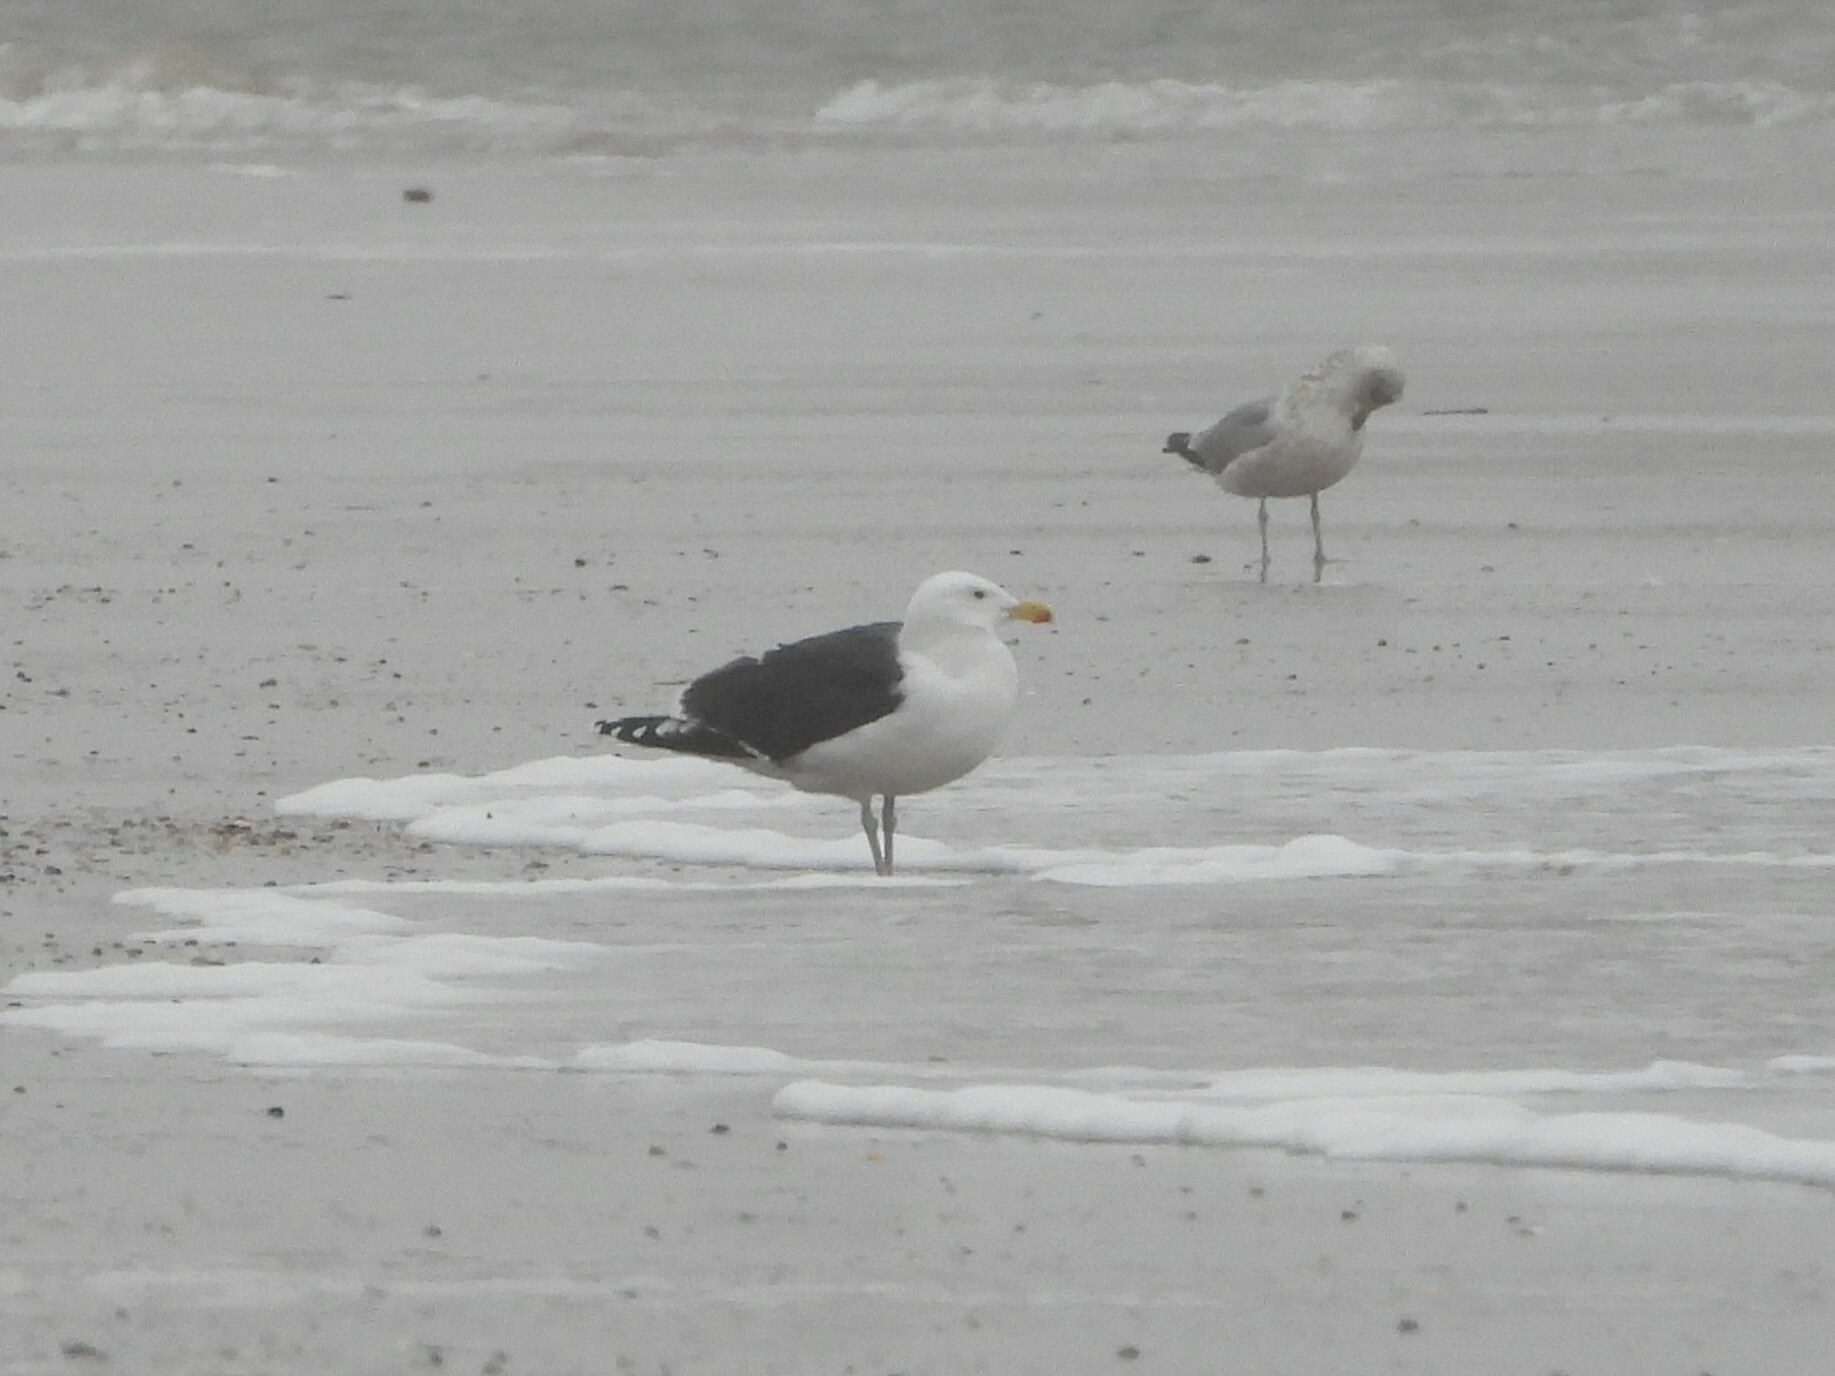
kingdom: Animalia
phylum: Chordata
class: Aves
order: Charadriiformes
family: Laridae
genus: Larus
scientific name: Larus marinus
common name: Great black-backed gull
